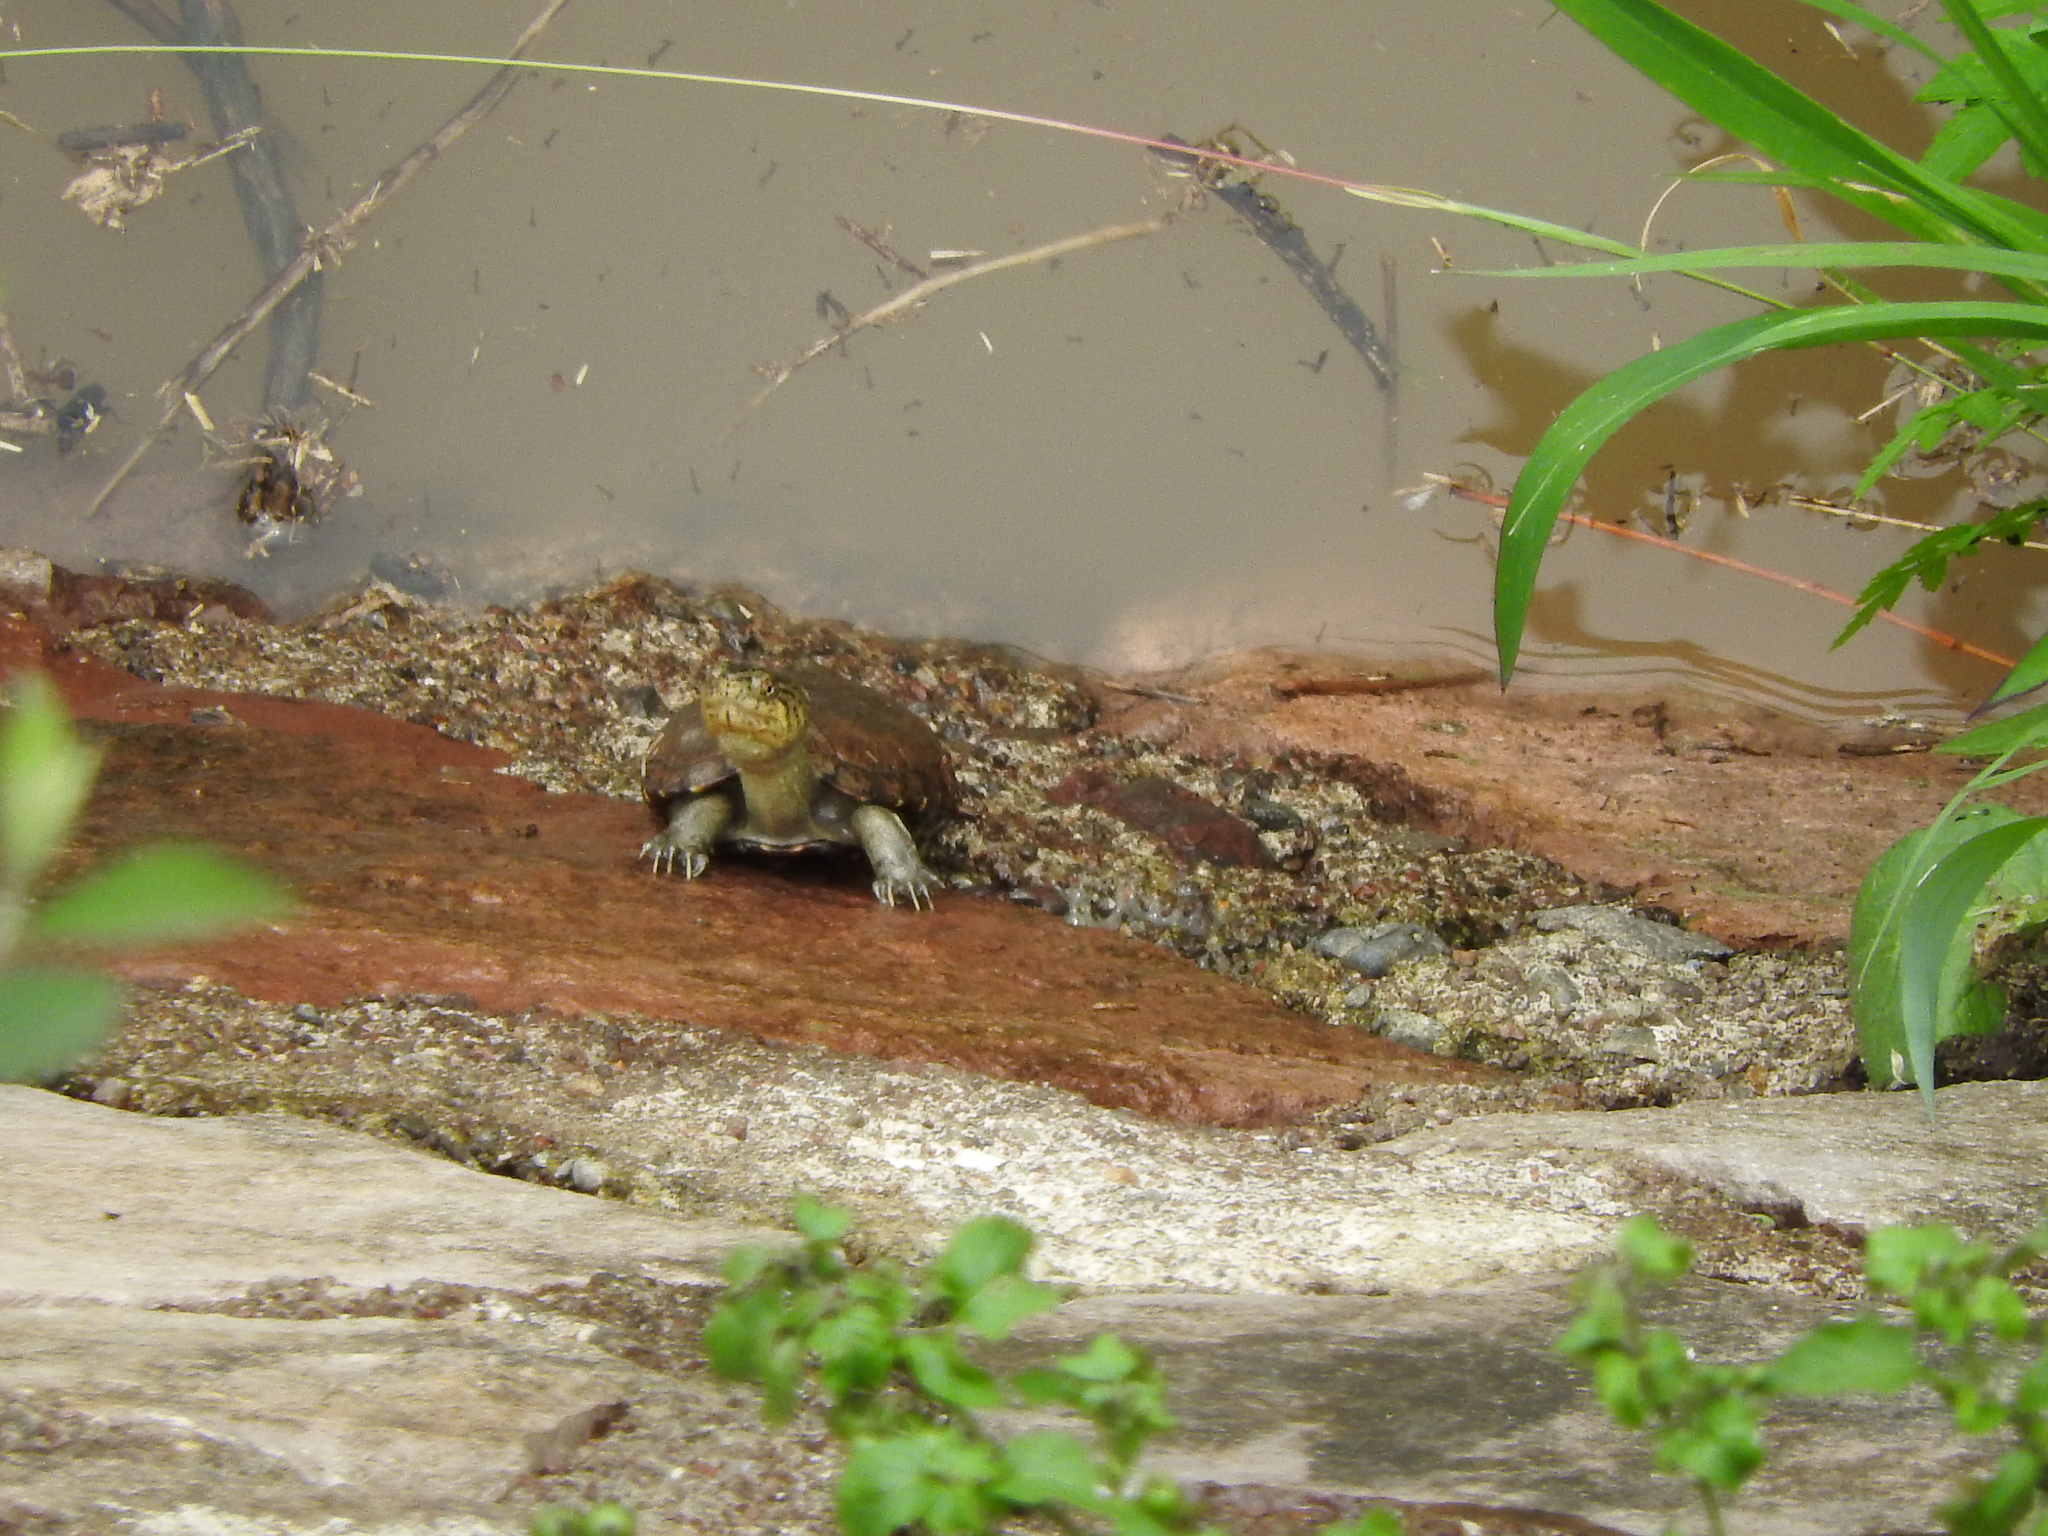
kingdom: Animalia
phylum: Chordata
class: Testudines
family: Kinosternidae
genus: Kinosternon
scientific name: Kinosternon integrum
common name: Mexican mud turtle
